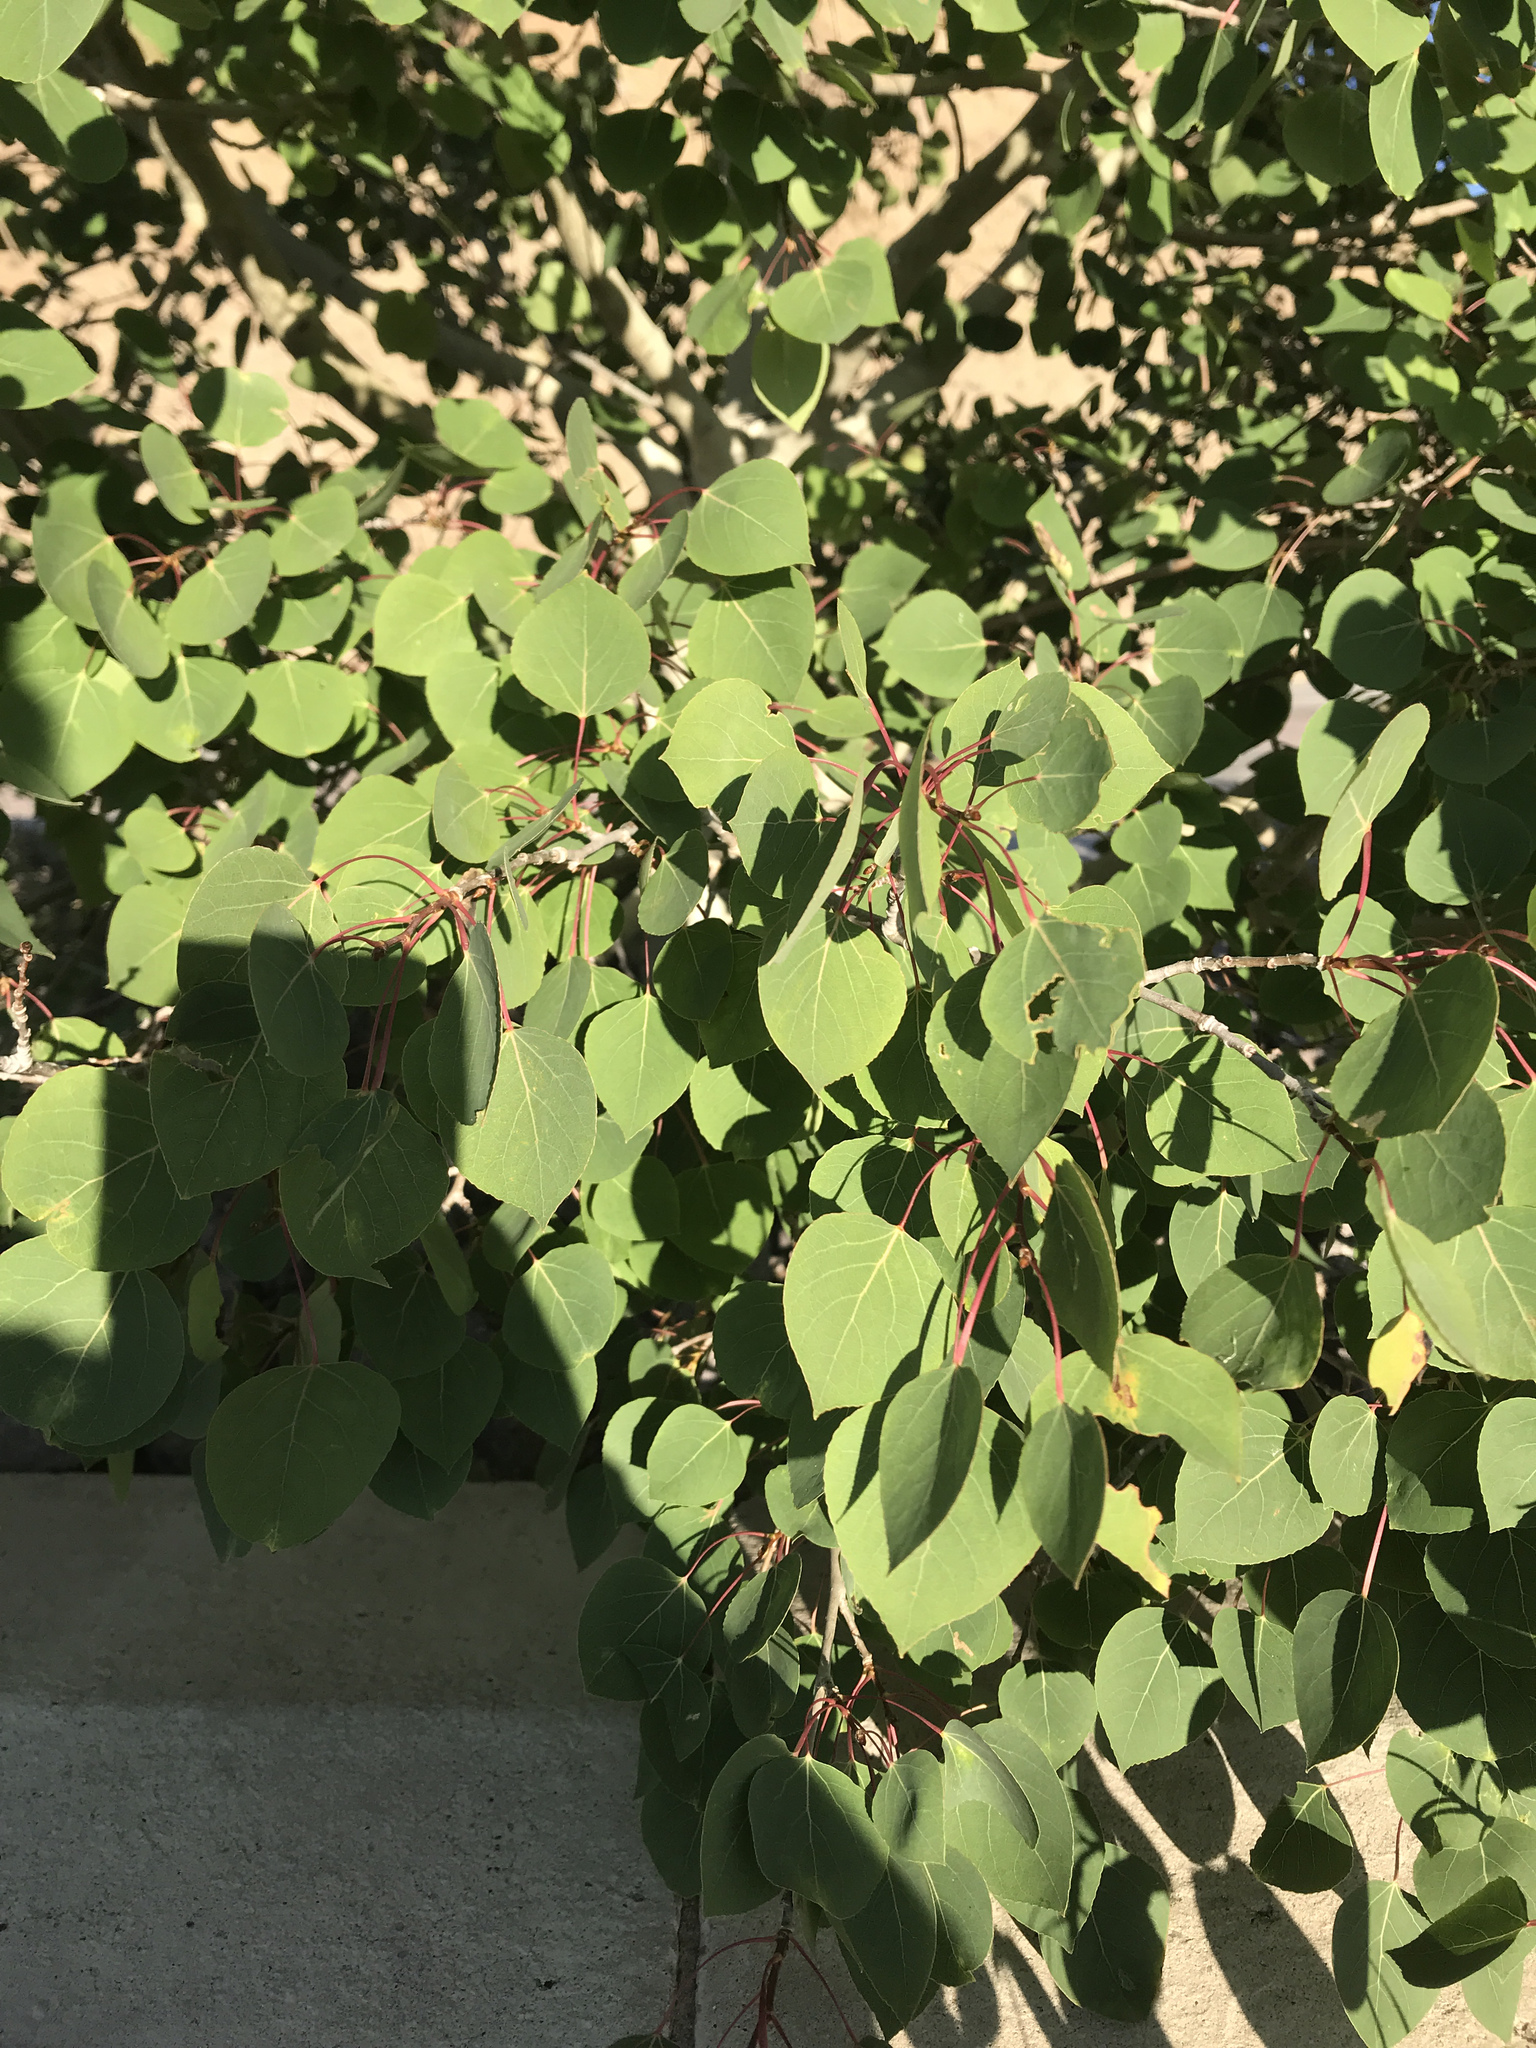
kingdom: Plantae
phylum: Tracheophyta
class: Magnoliopsida
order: Malpighiales
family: Salicaceae
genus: Populus
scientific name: Populus tremuloides
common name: Quaking aspen
